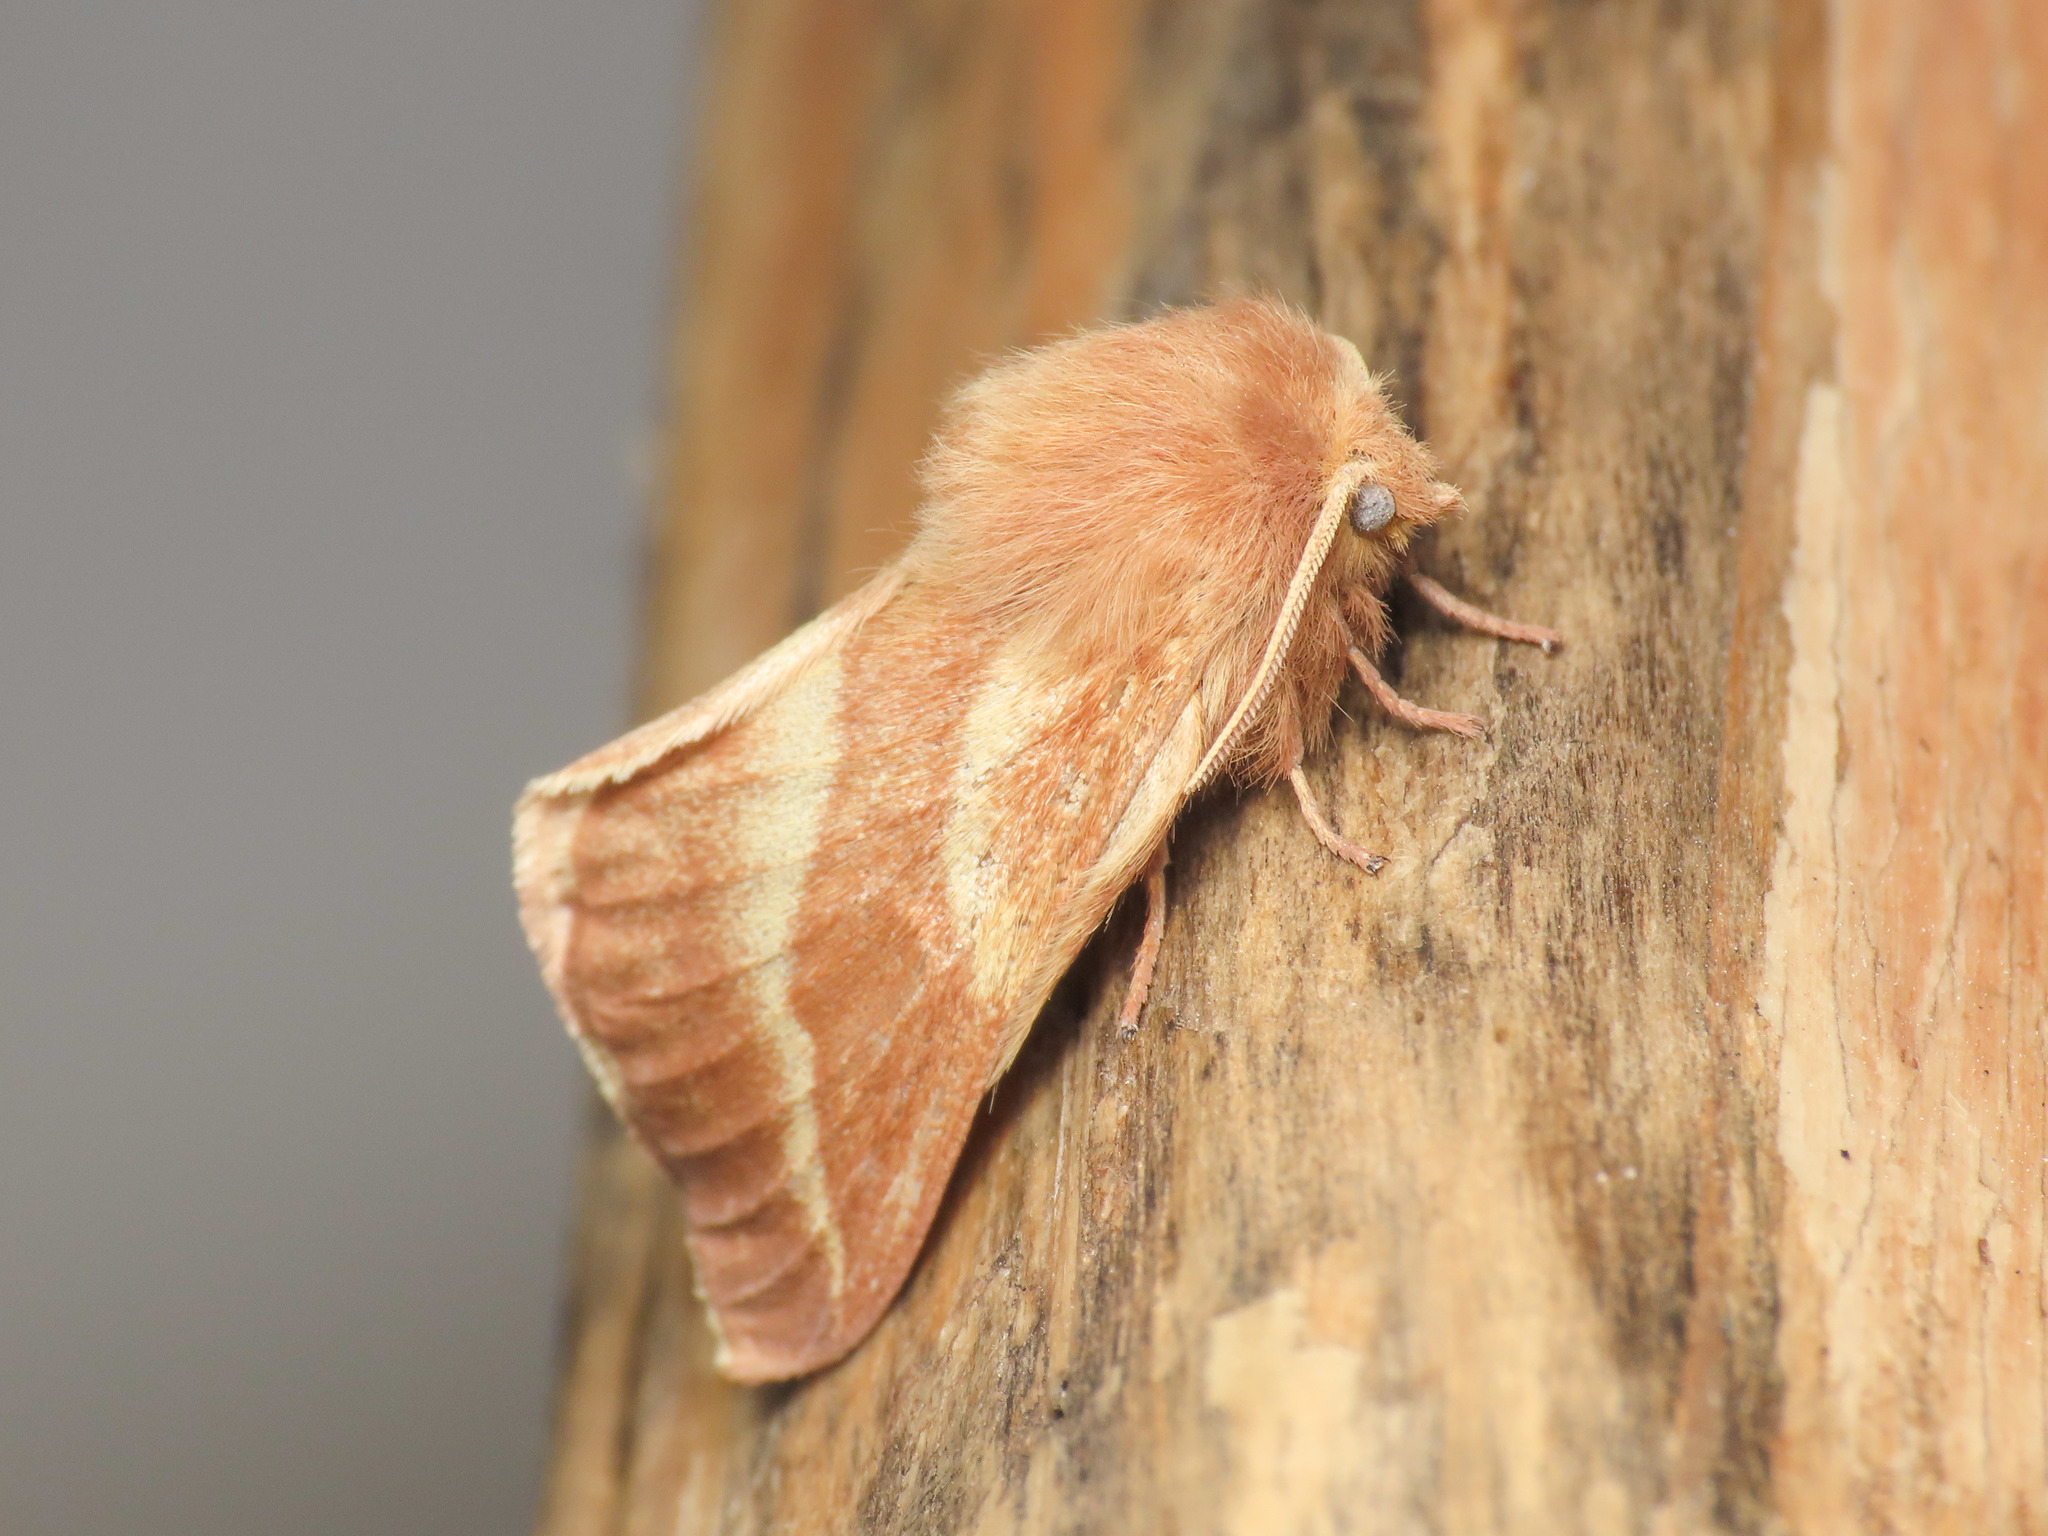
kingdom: Animalia
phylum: Arthropoda
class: Insecta
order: Lepidoptera
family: Lasiocampidae
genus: Malacosoma
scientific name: Malacosoma castrense
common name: Ground lackey
